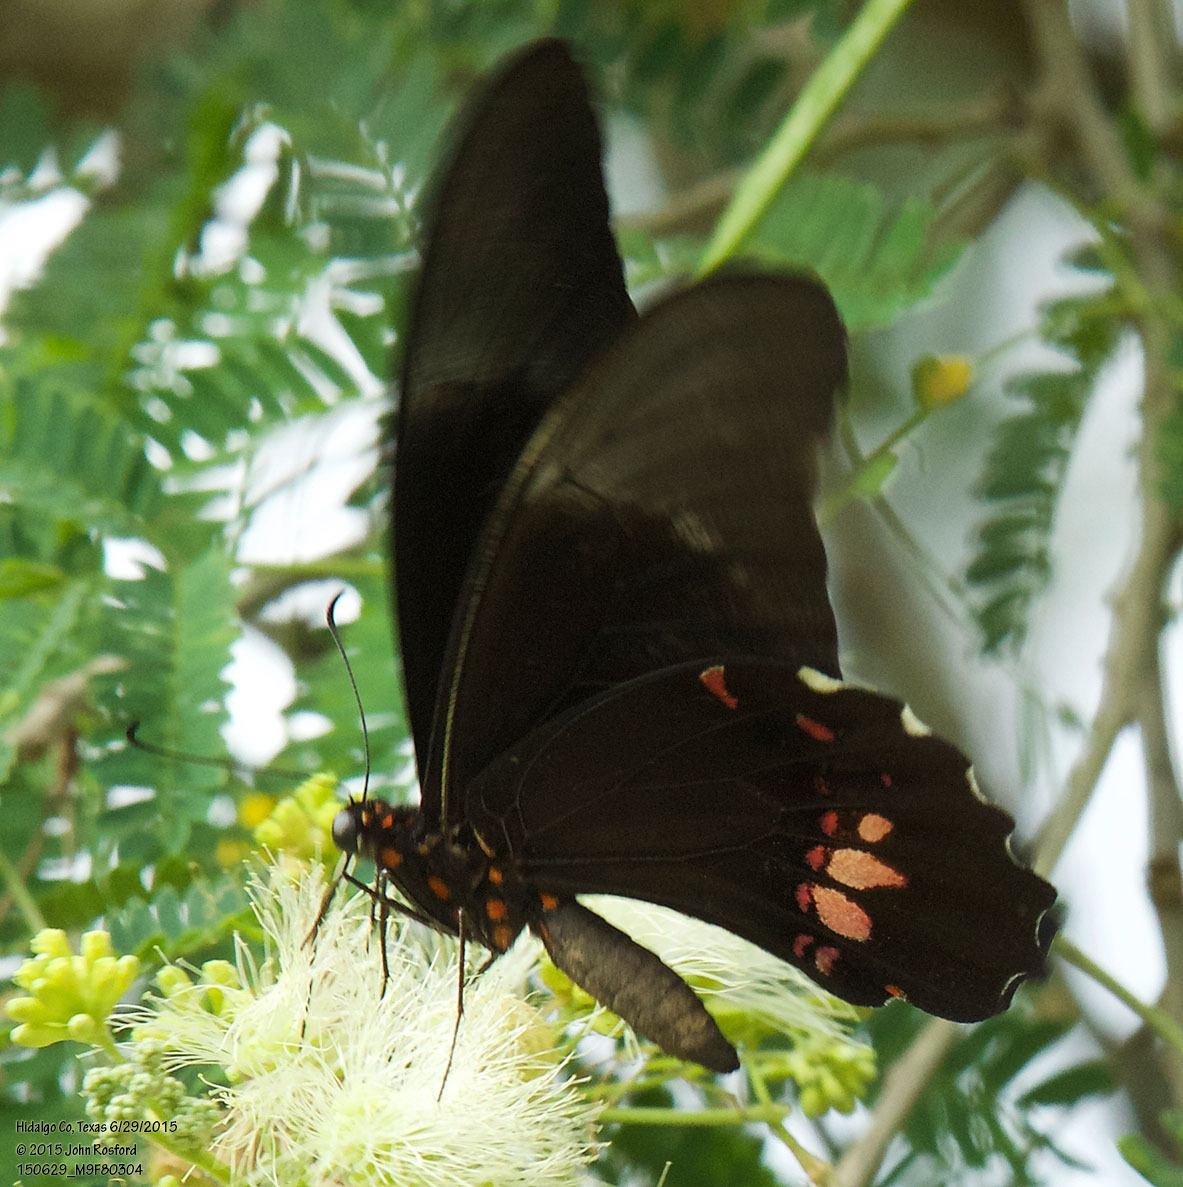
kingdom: Animalia
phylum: Arthropoda
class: Insecta
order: Lepidoptera
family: Papilionidae
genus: Papilio
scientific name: Papilio anchisiades
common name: Idaes swallowtail
